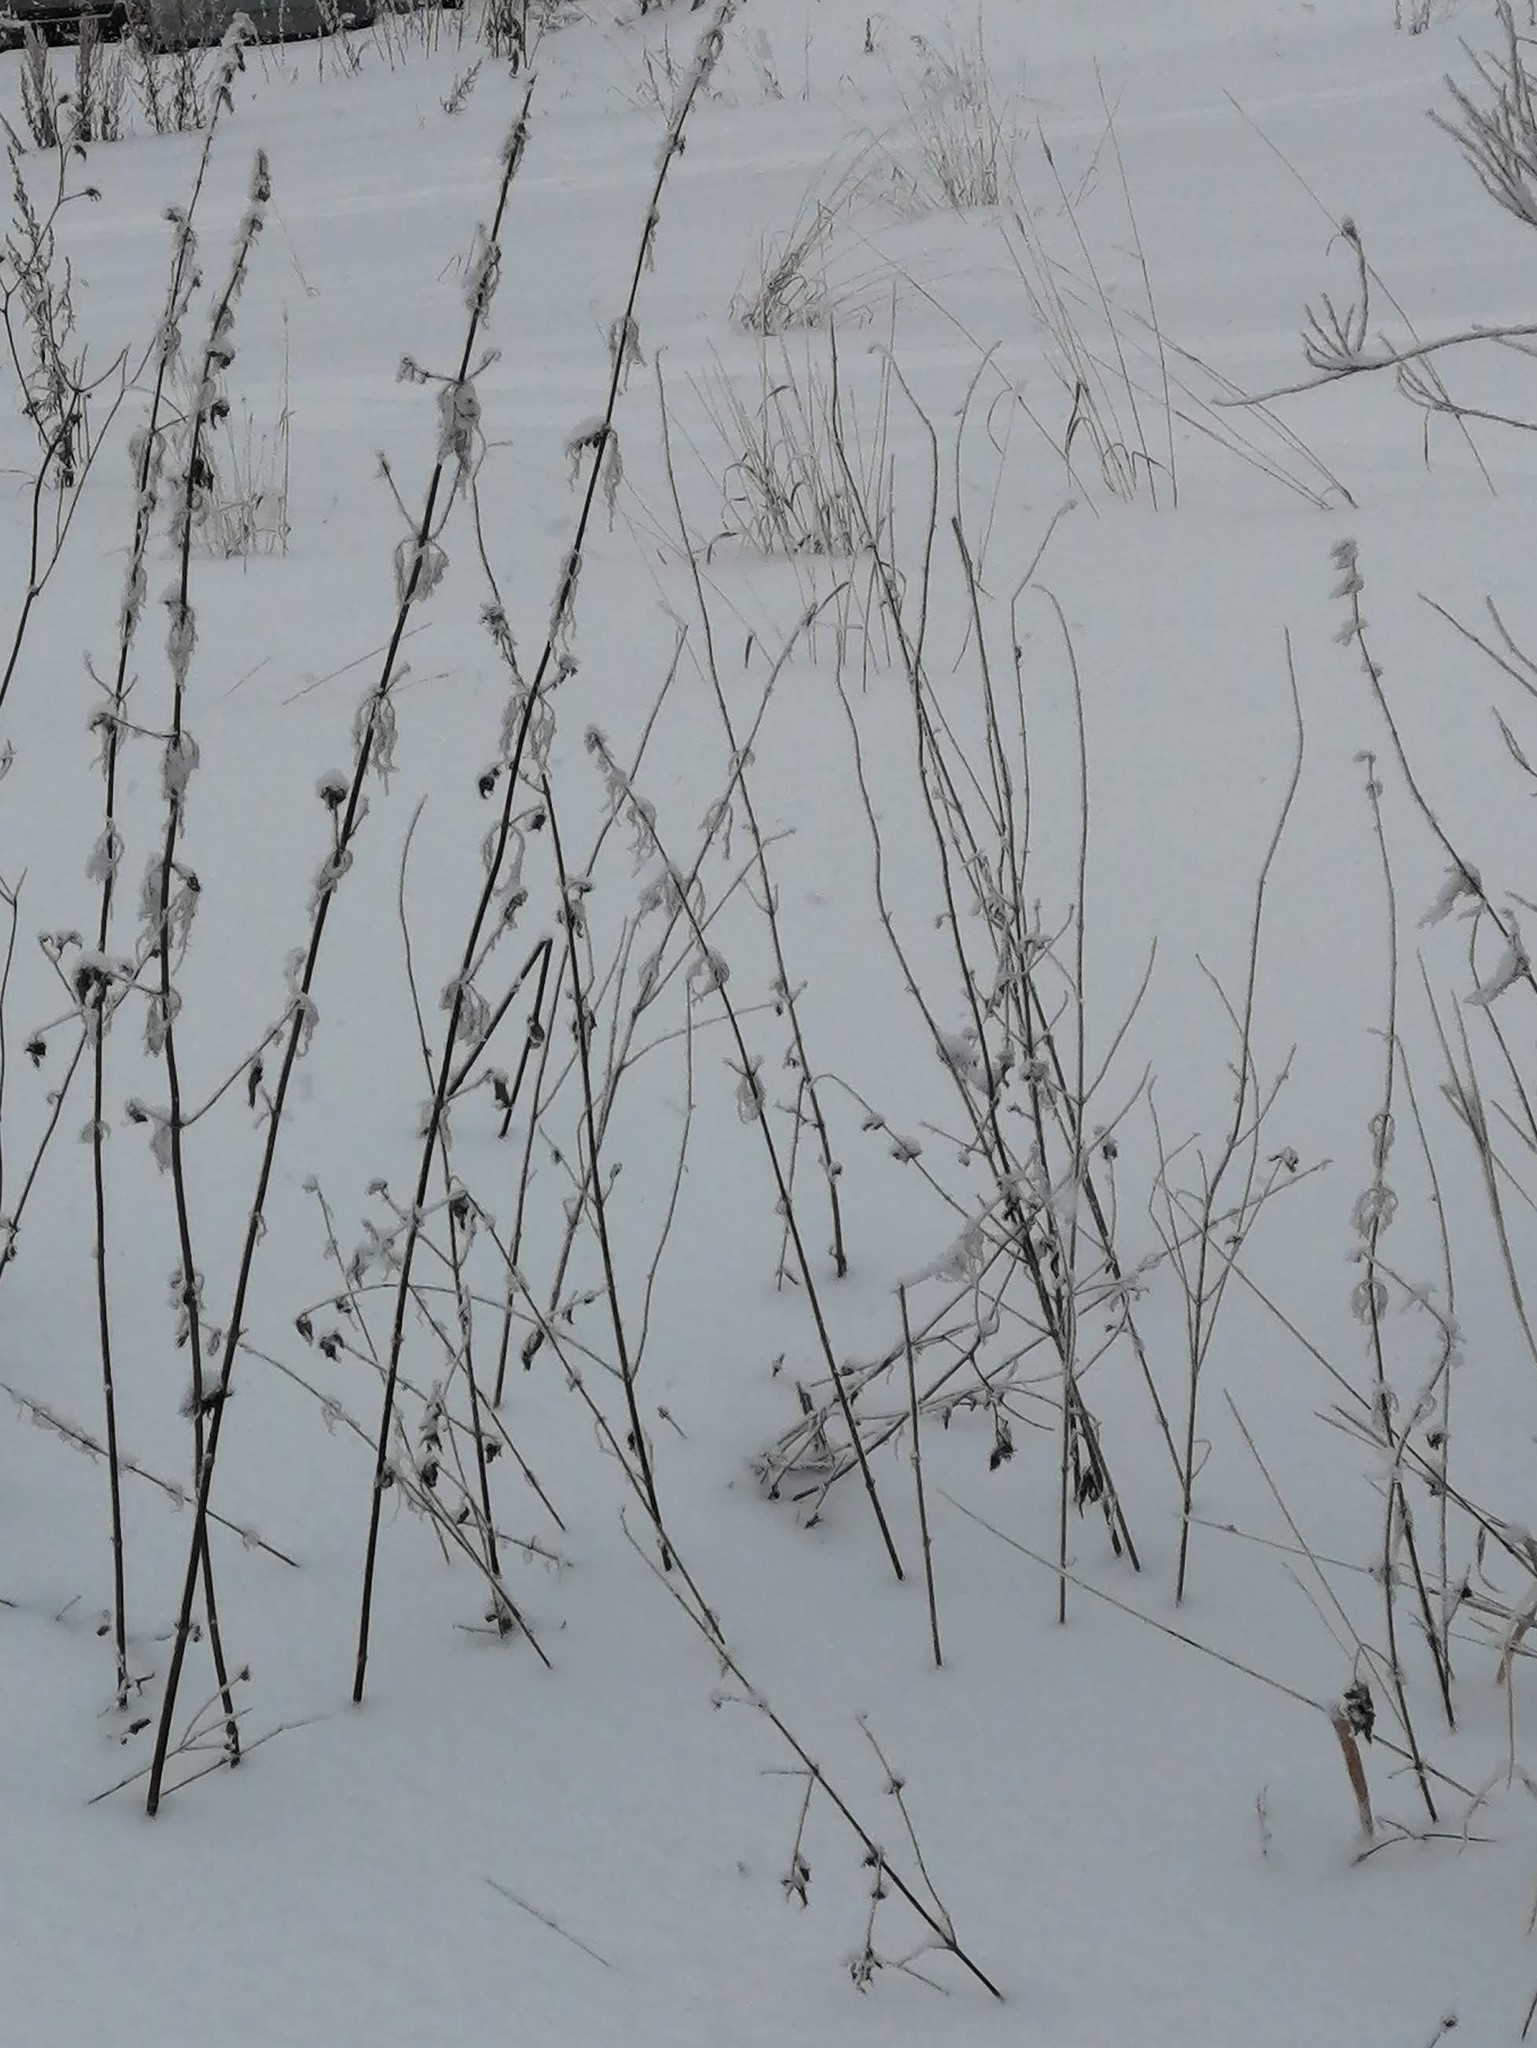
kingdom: Plantae
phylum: Tracheophyta
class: Magnoliopsida
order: Rosales
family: Urticaceae
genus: Urtica
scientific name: Urtica dioica
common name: Common nettle
